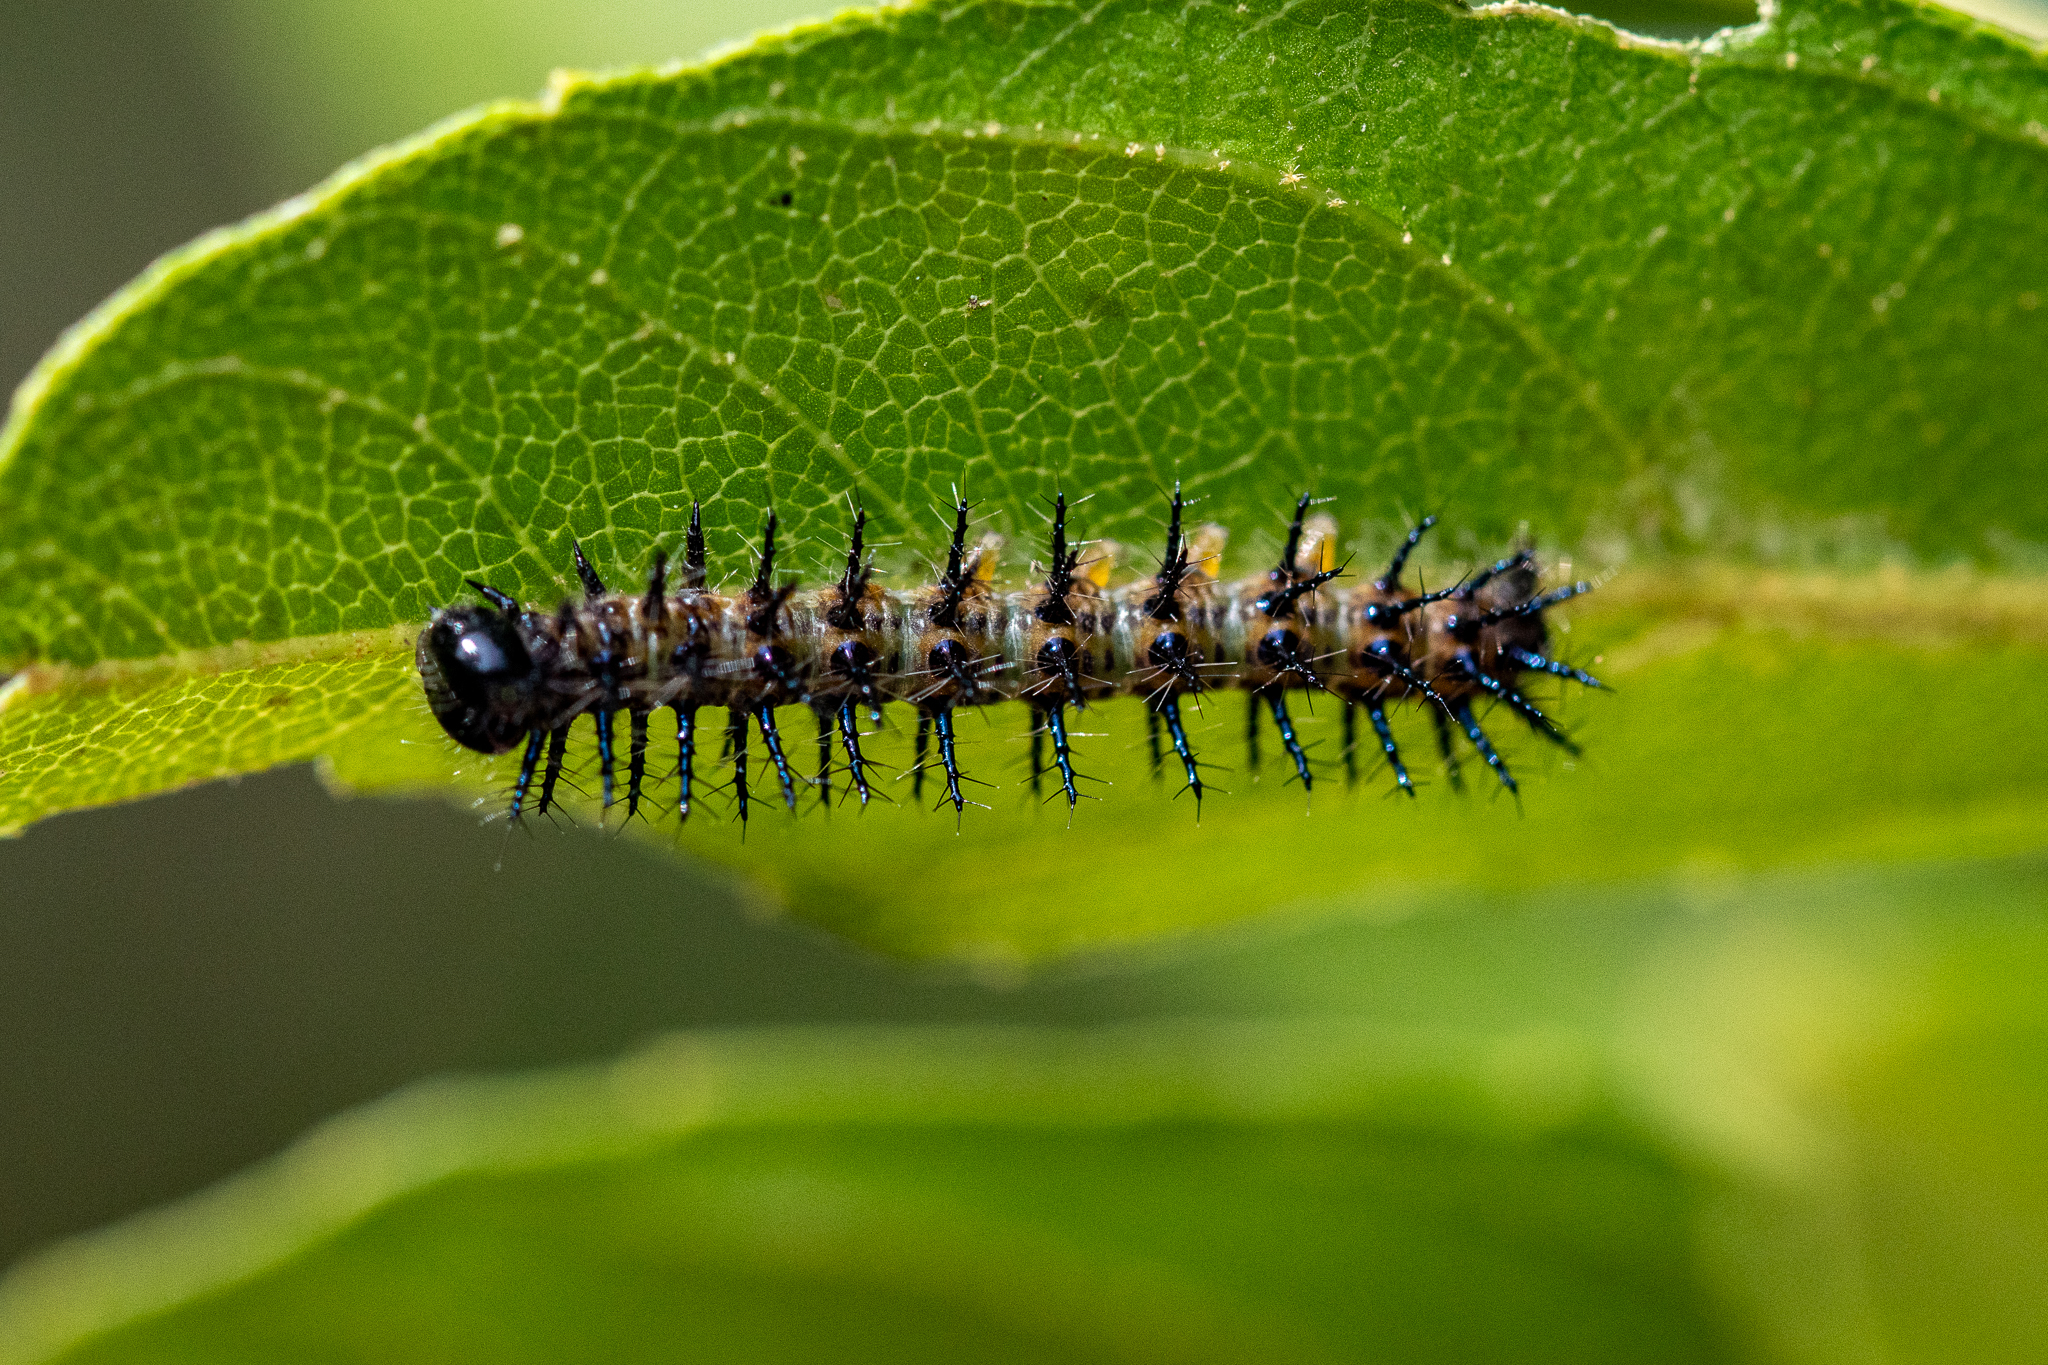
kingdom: Animalia
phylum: Arthropoda
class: Insecta
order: Lepidoptera
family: Nymphalidae
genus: Acraea
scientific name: Acraea horta
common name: Garden acraea
